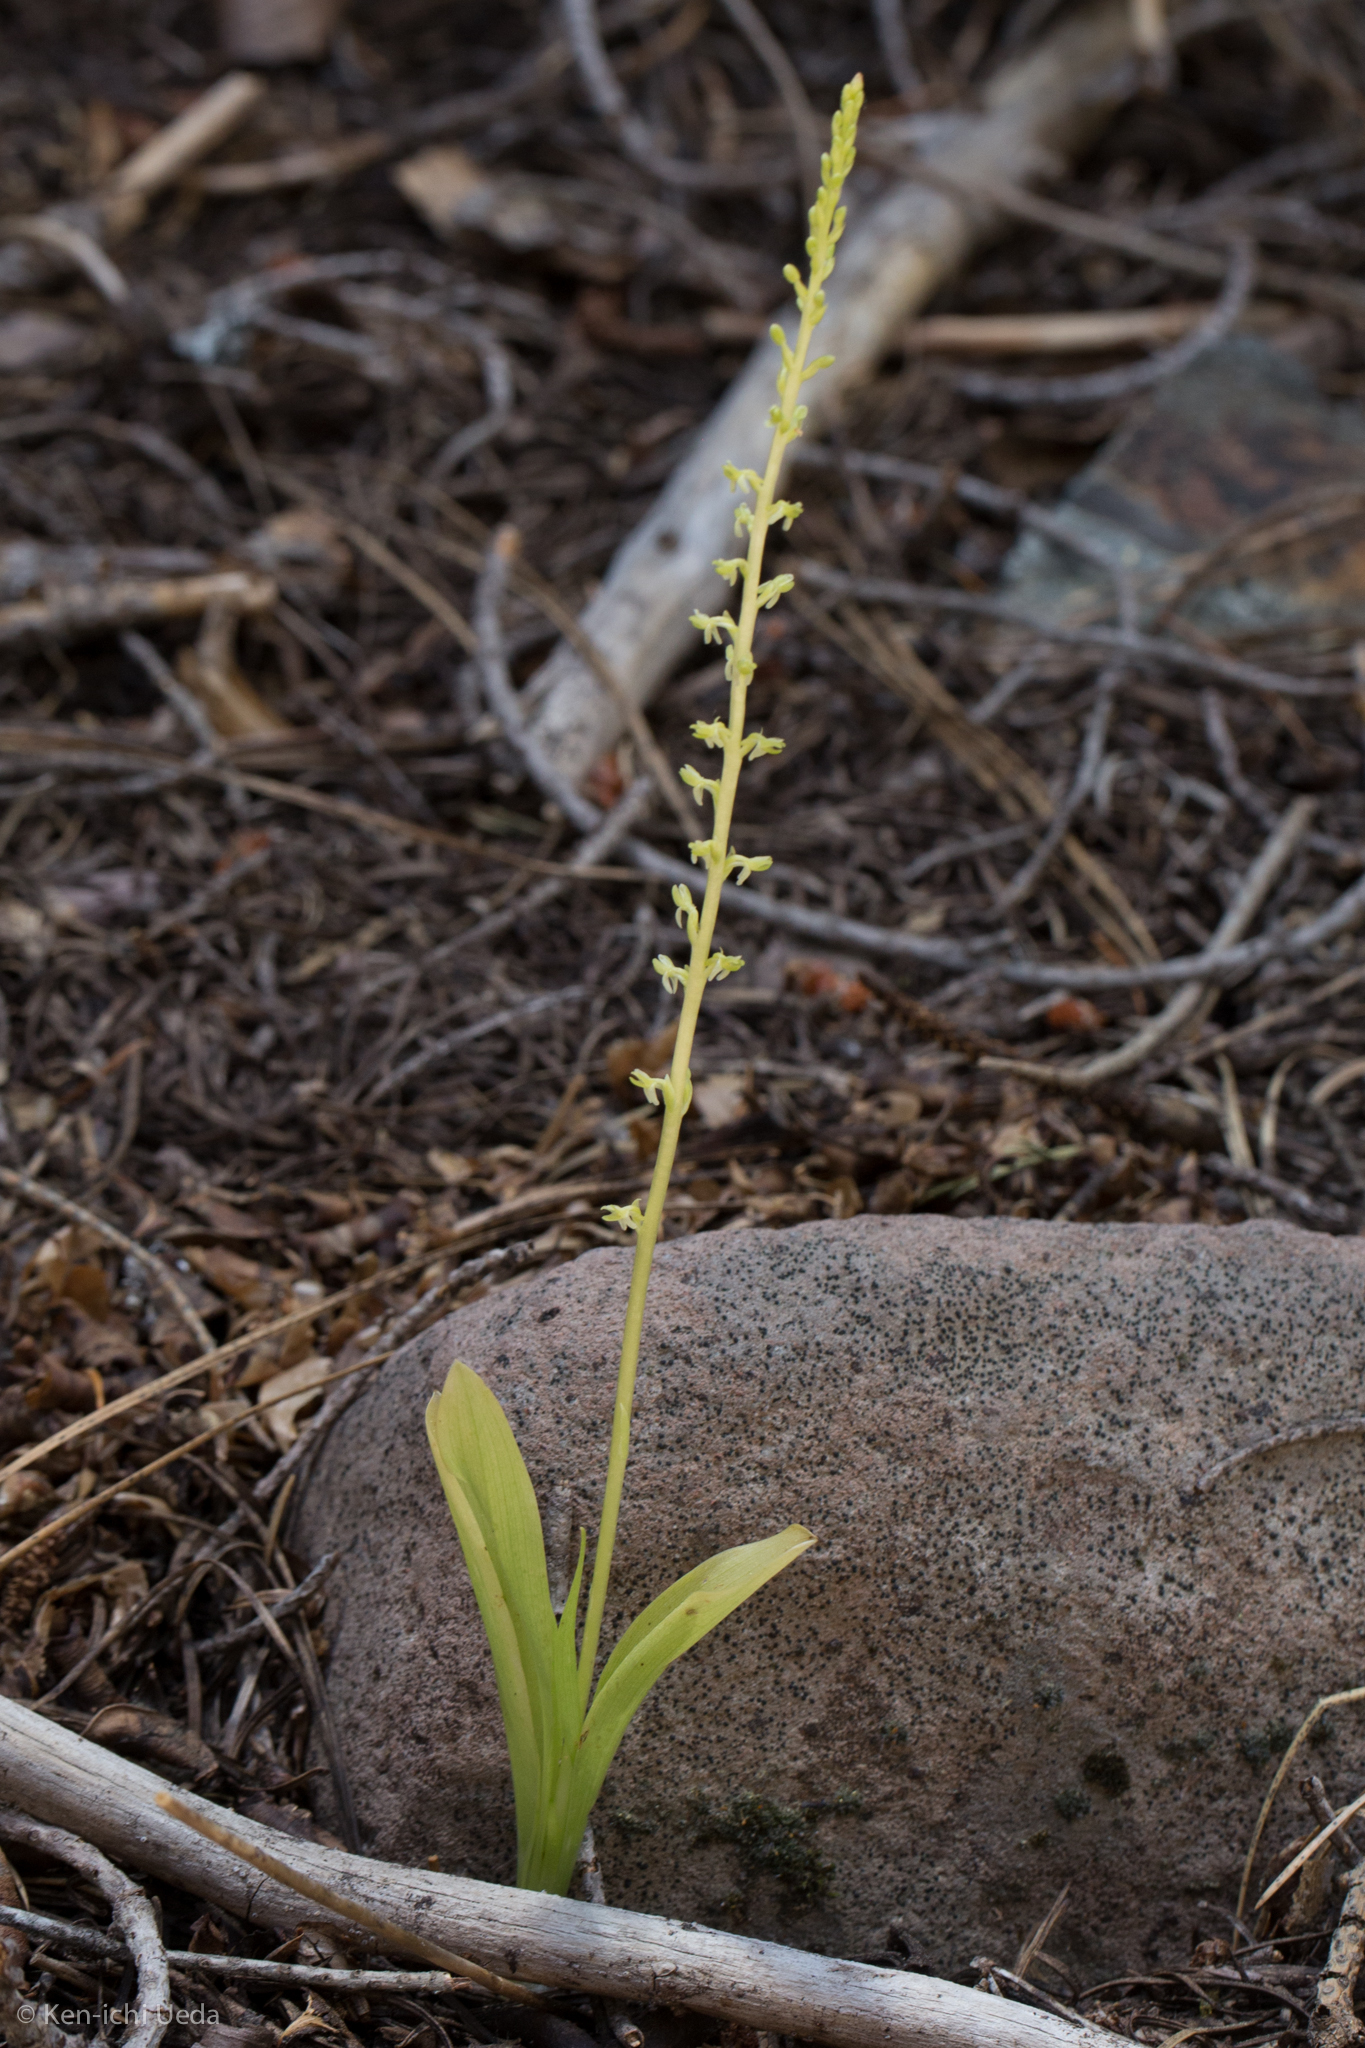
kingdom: Plantae
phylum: Tracheophyta
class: Liliopsida
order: Asparagales
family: Orchidaceae
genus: Platanthera
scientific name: Platanthera unalascensis
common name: Alaska bog orchid
